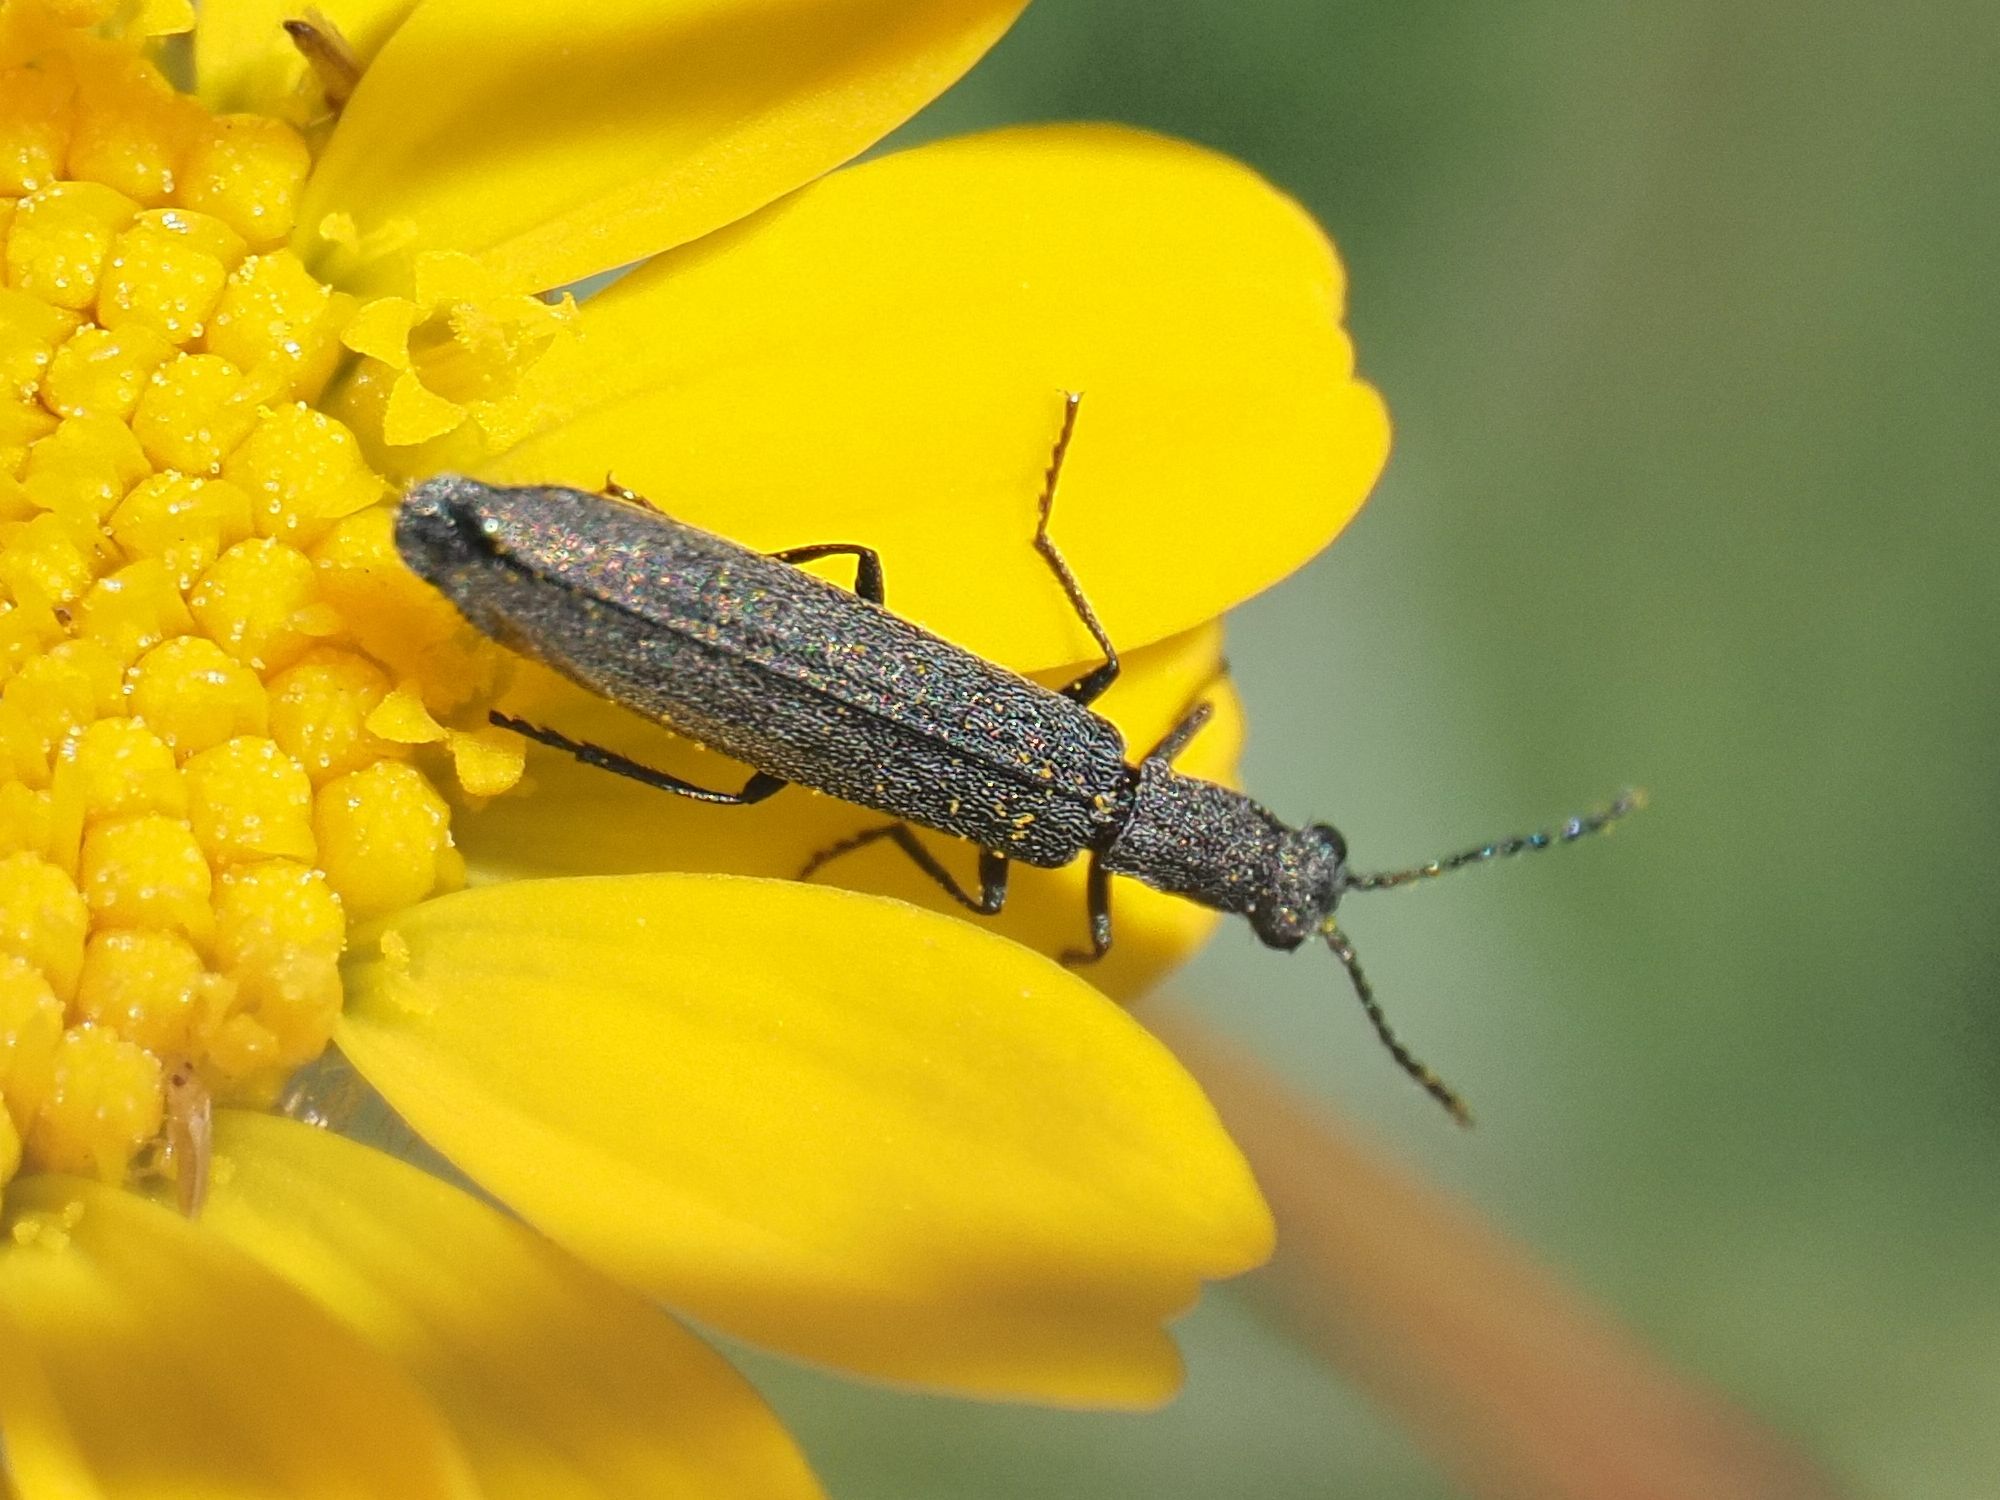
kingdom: Animalia
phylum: Arthropoda
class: Insecta
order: Coleoptera
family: Melyridae
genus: Dolichosoma
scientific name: Dolichosoma lineare
